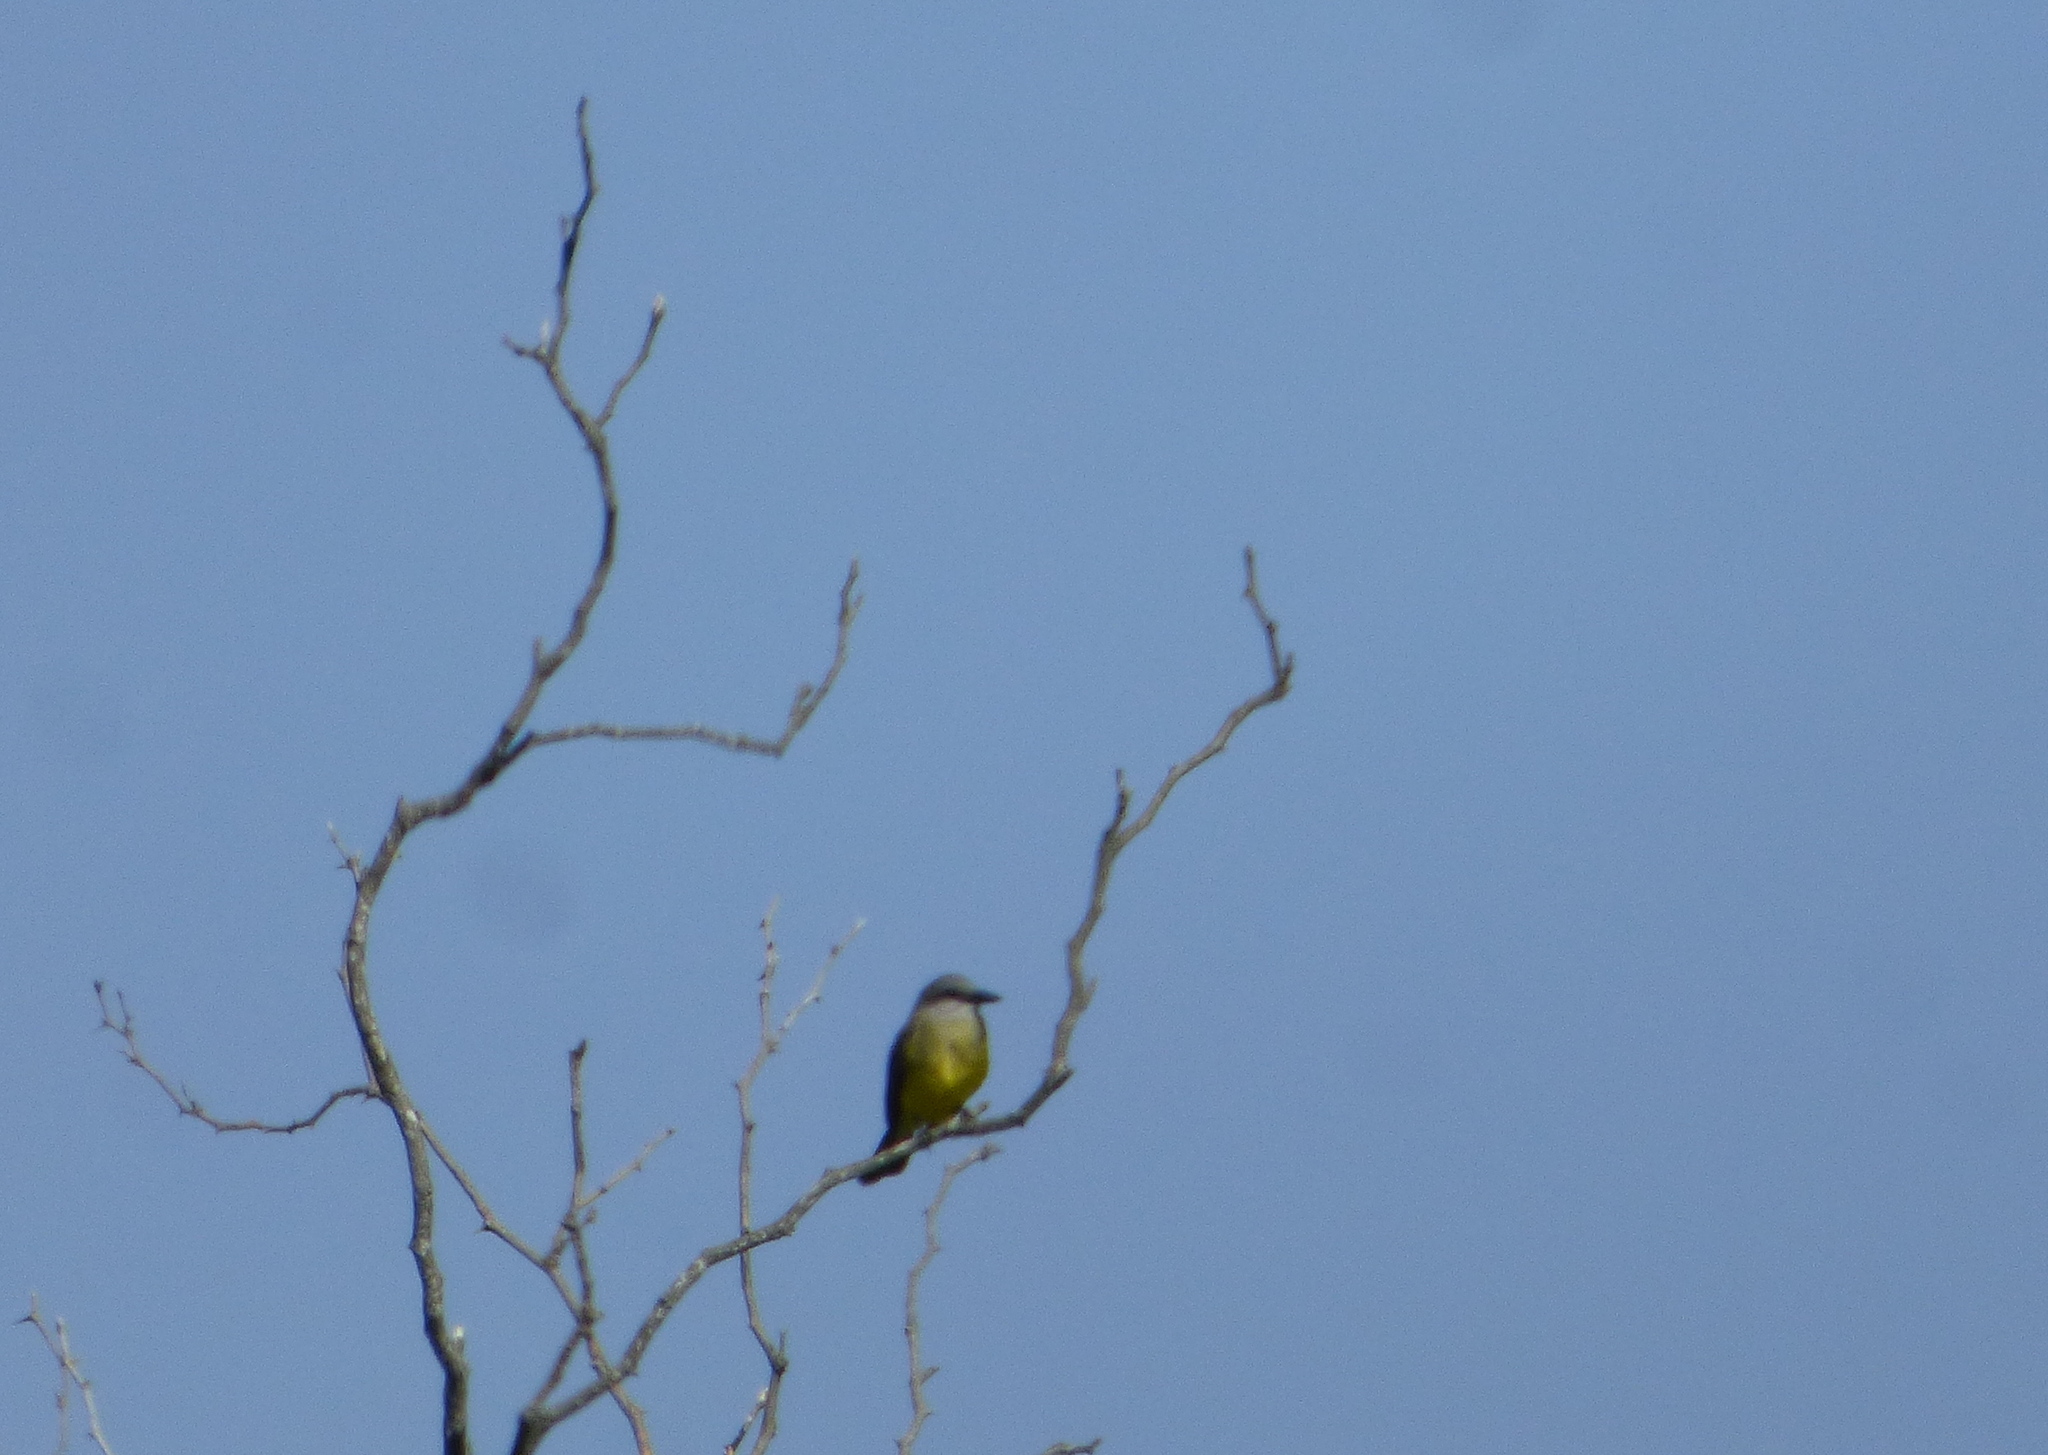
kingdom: Animalia
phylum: Chordata
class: Aves
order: Passeriformes
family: Tyrannidae
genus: Tyrannus
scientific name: Tyrannus melancholicus
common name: Tropical kingbird
